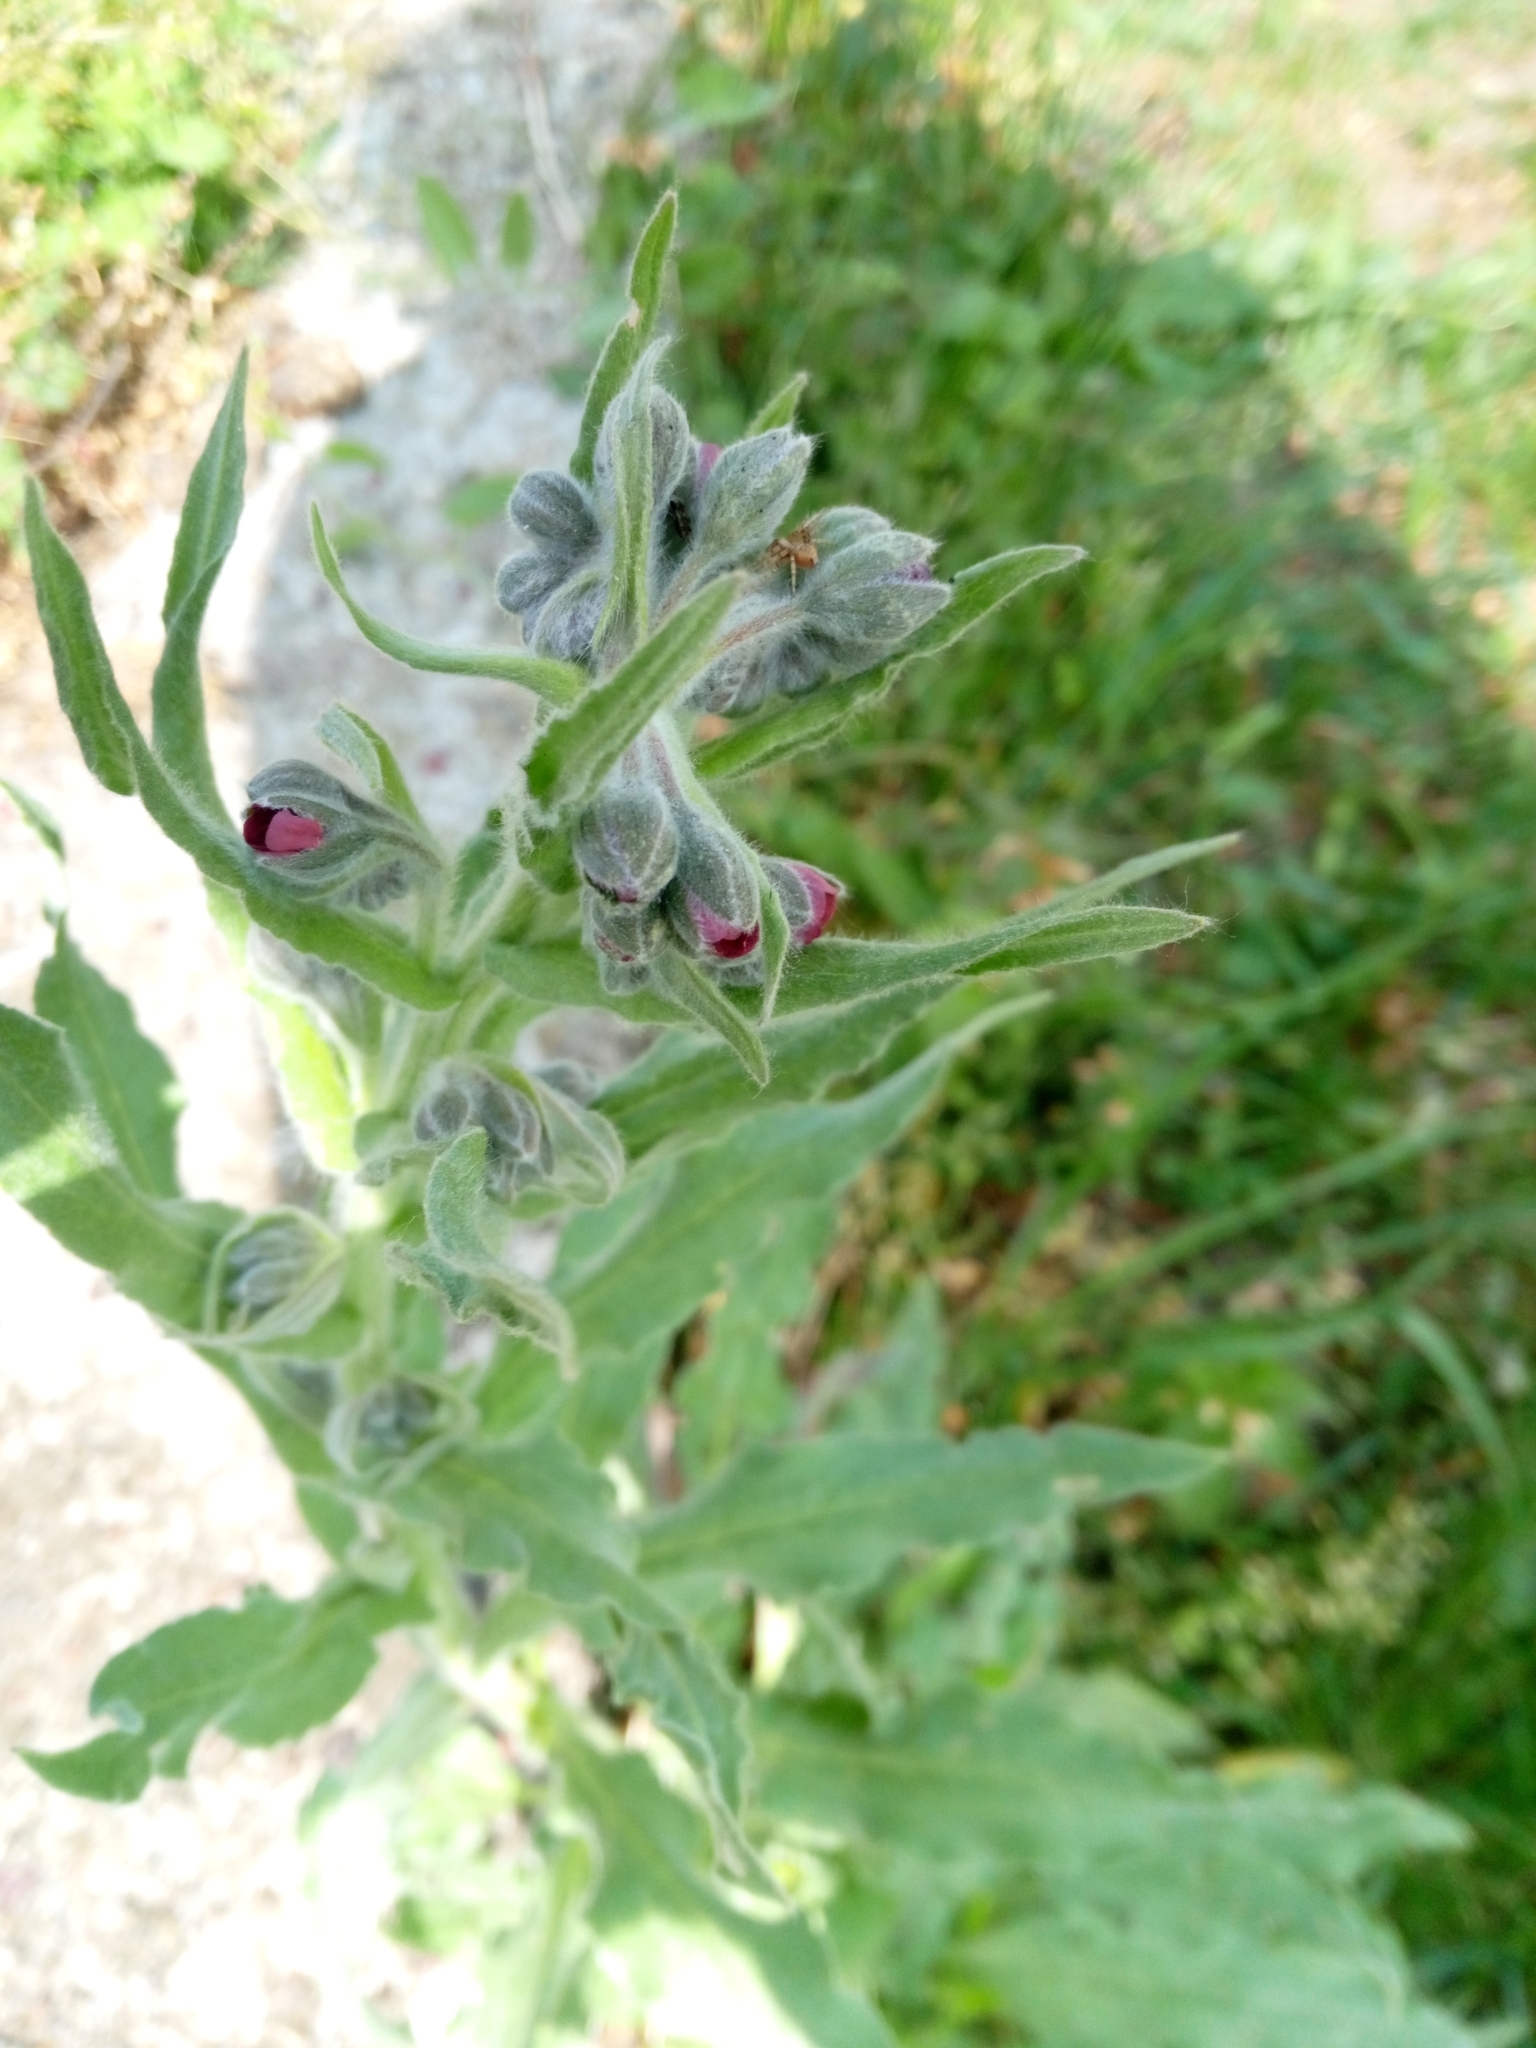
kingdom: Plantae
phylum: Tracheophyta
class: Magnoliopsida
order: Boraginales
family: Boraginaceae
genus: Cynoglossum
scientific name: Cynoglossum officinale
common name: Hound's-tongue
